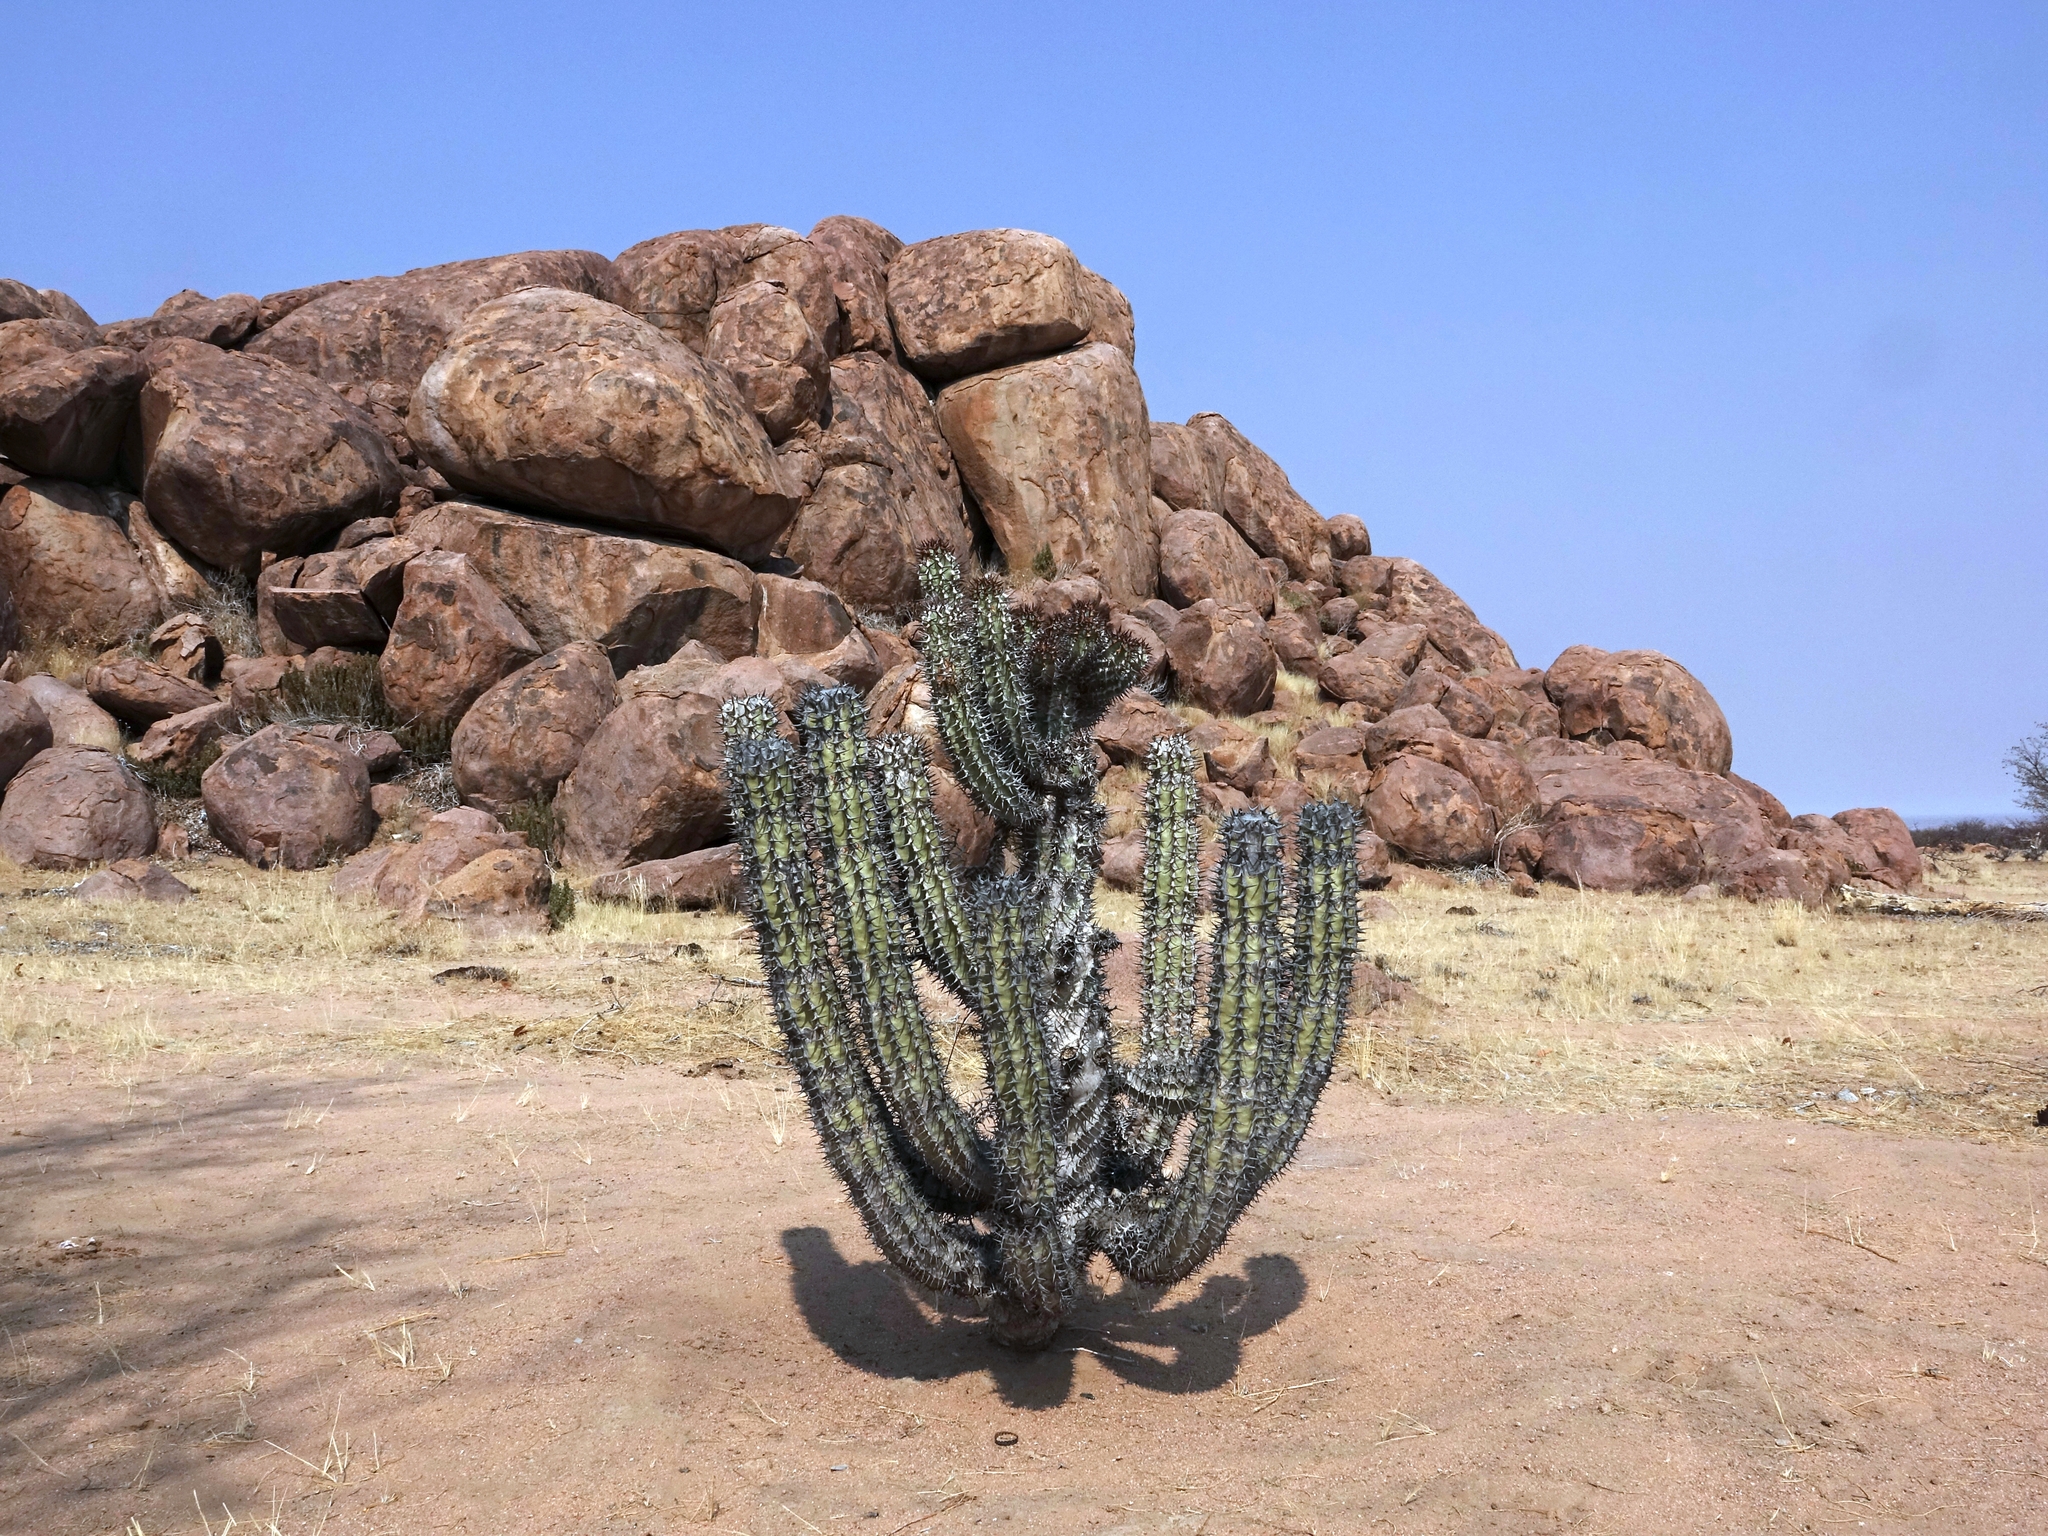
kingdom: Plantae
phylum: Tracheophyta
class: Magnoliopsida
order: Malpighiales
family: Euphorbiaceae
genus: Euphorbia
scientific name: Euphorbia virosa
